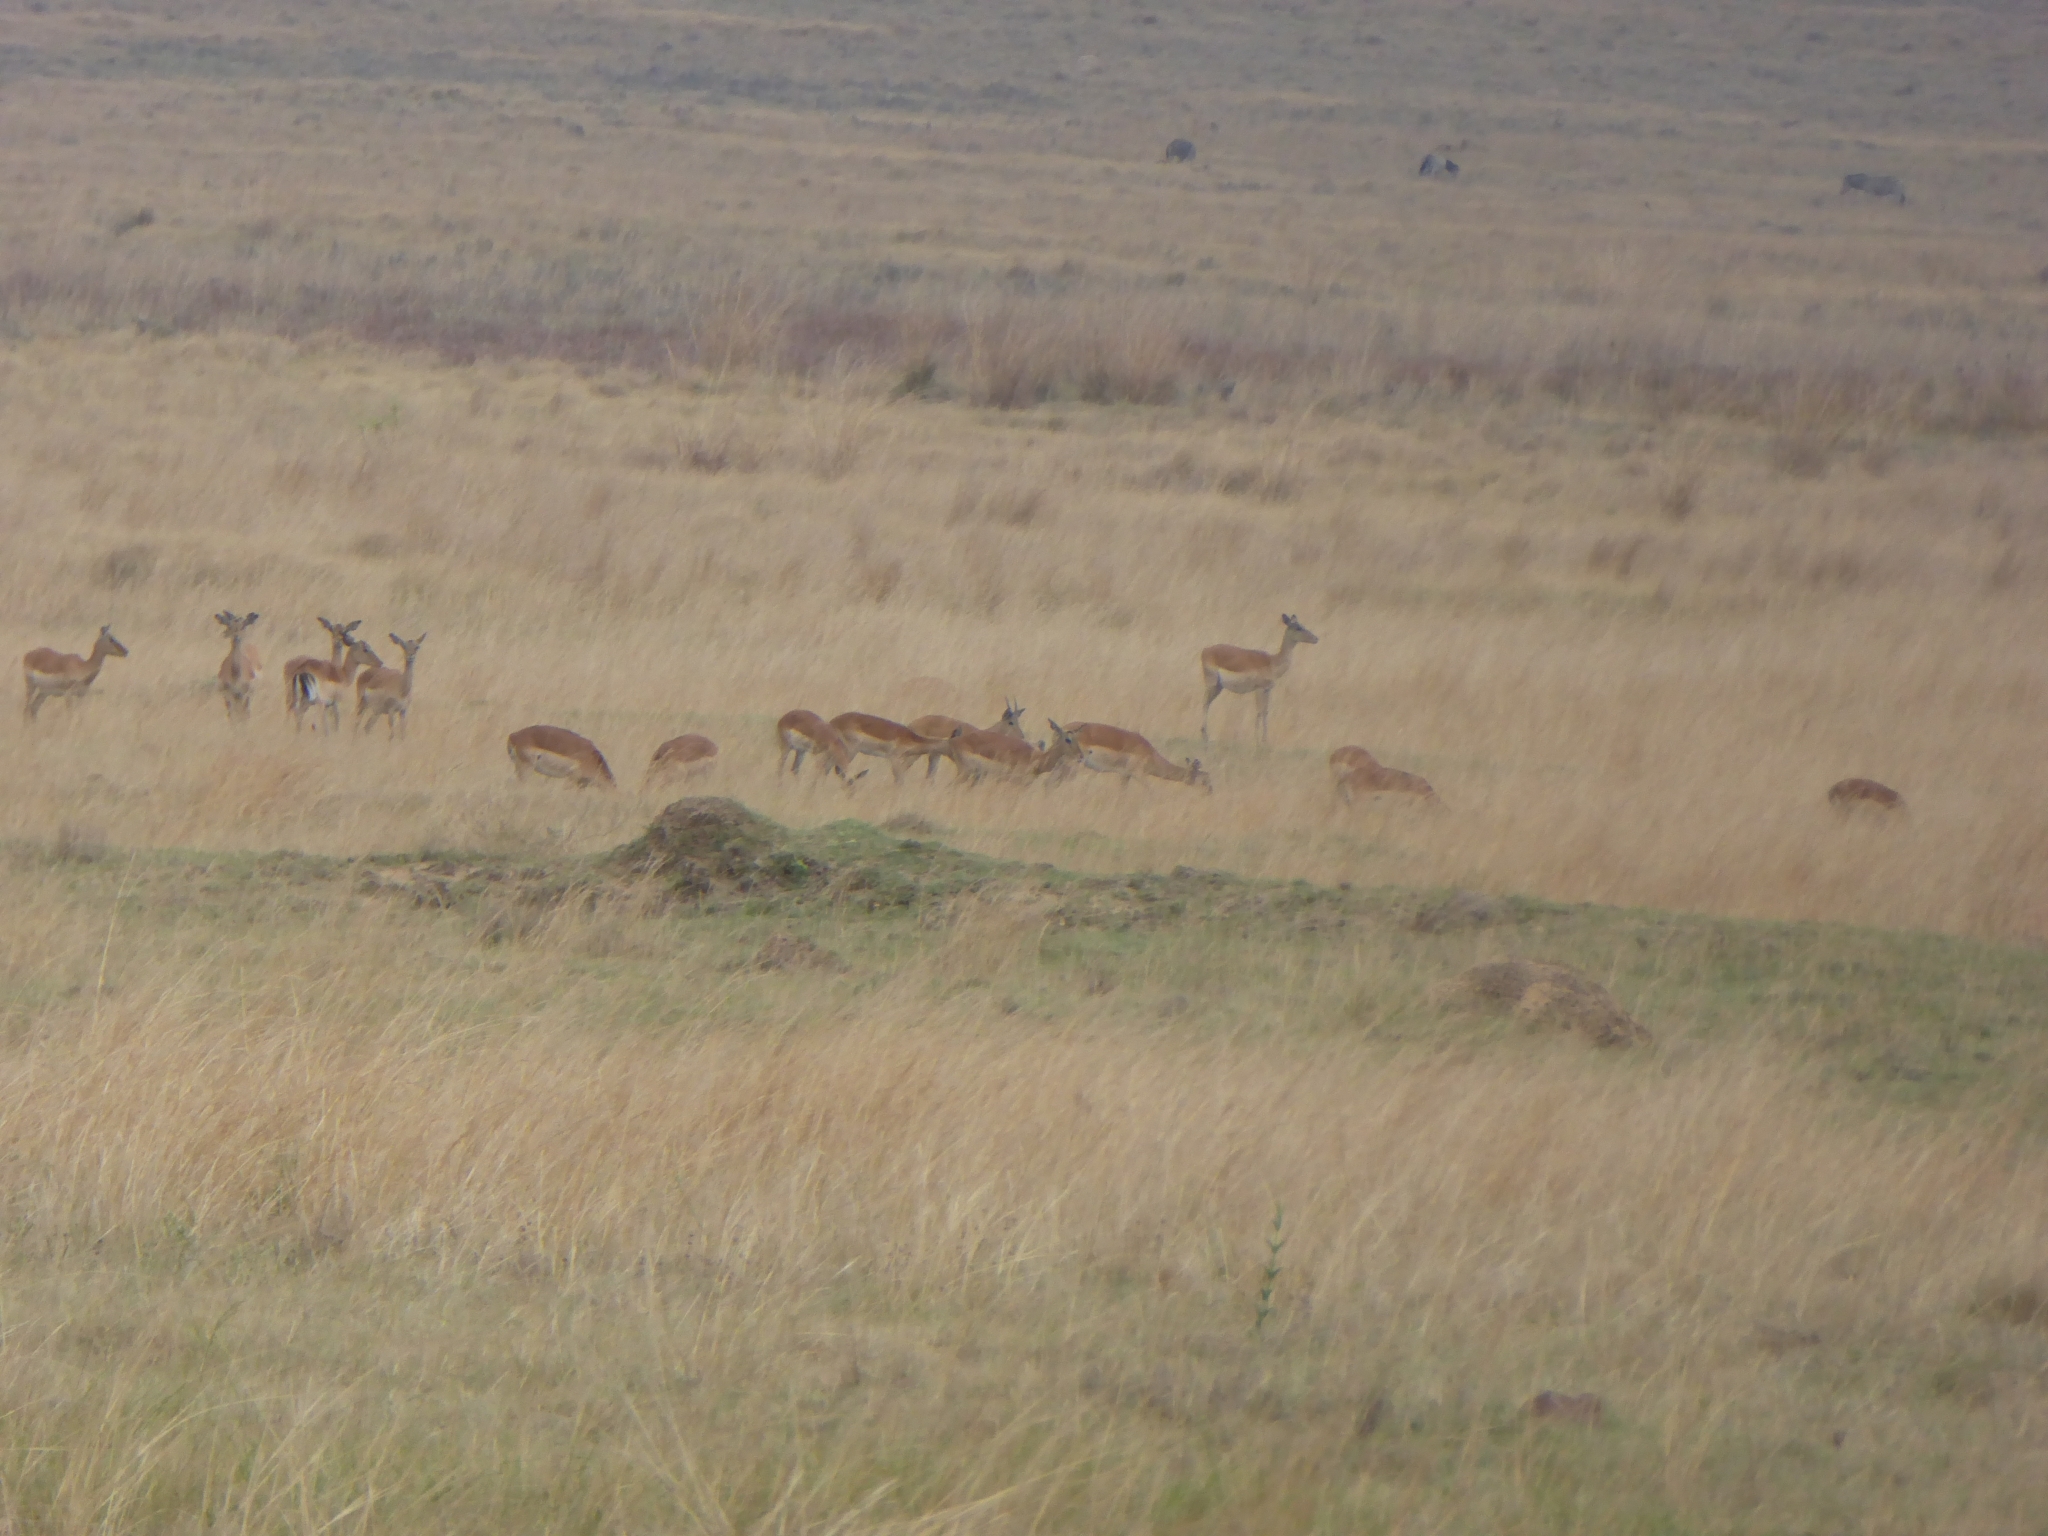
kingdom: Animalia
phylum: Chordata
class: Mammalia
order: Artiodactyla
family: Bovidae
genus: Aepyceros
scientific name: Aepyceros melampus
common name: Impala
